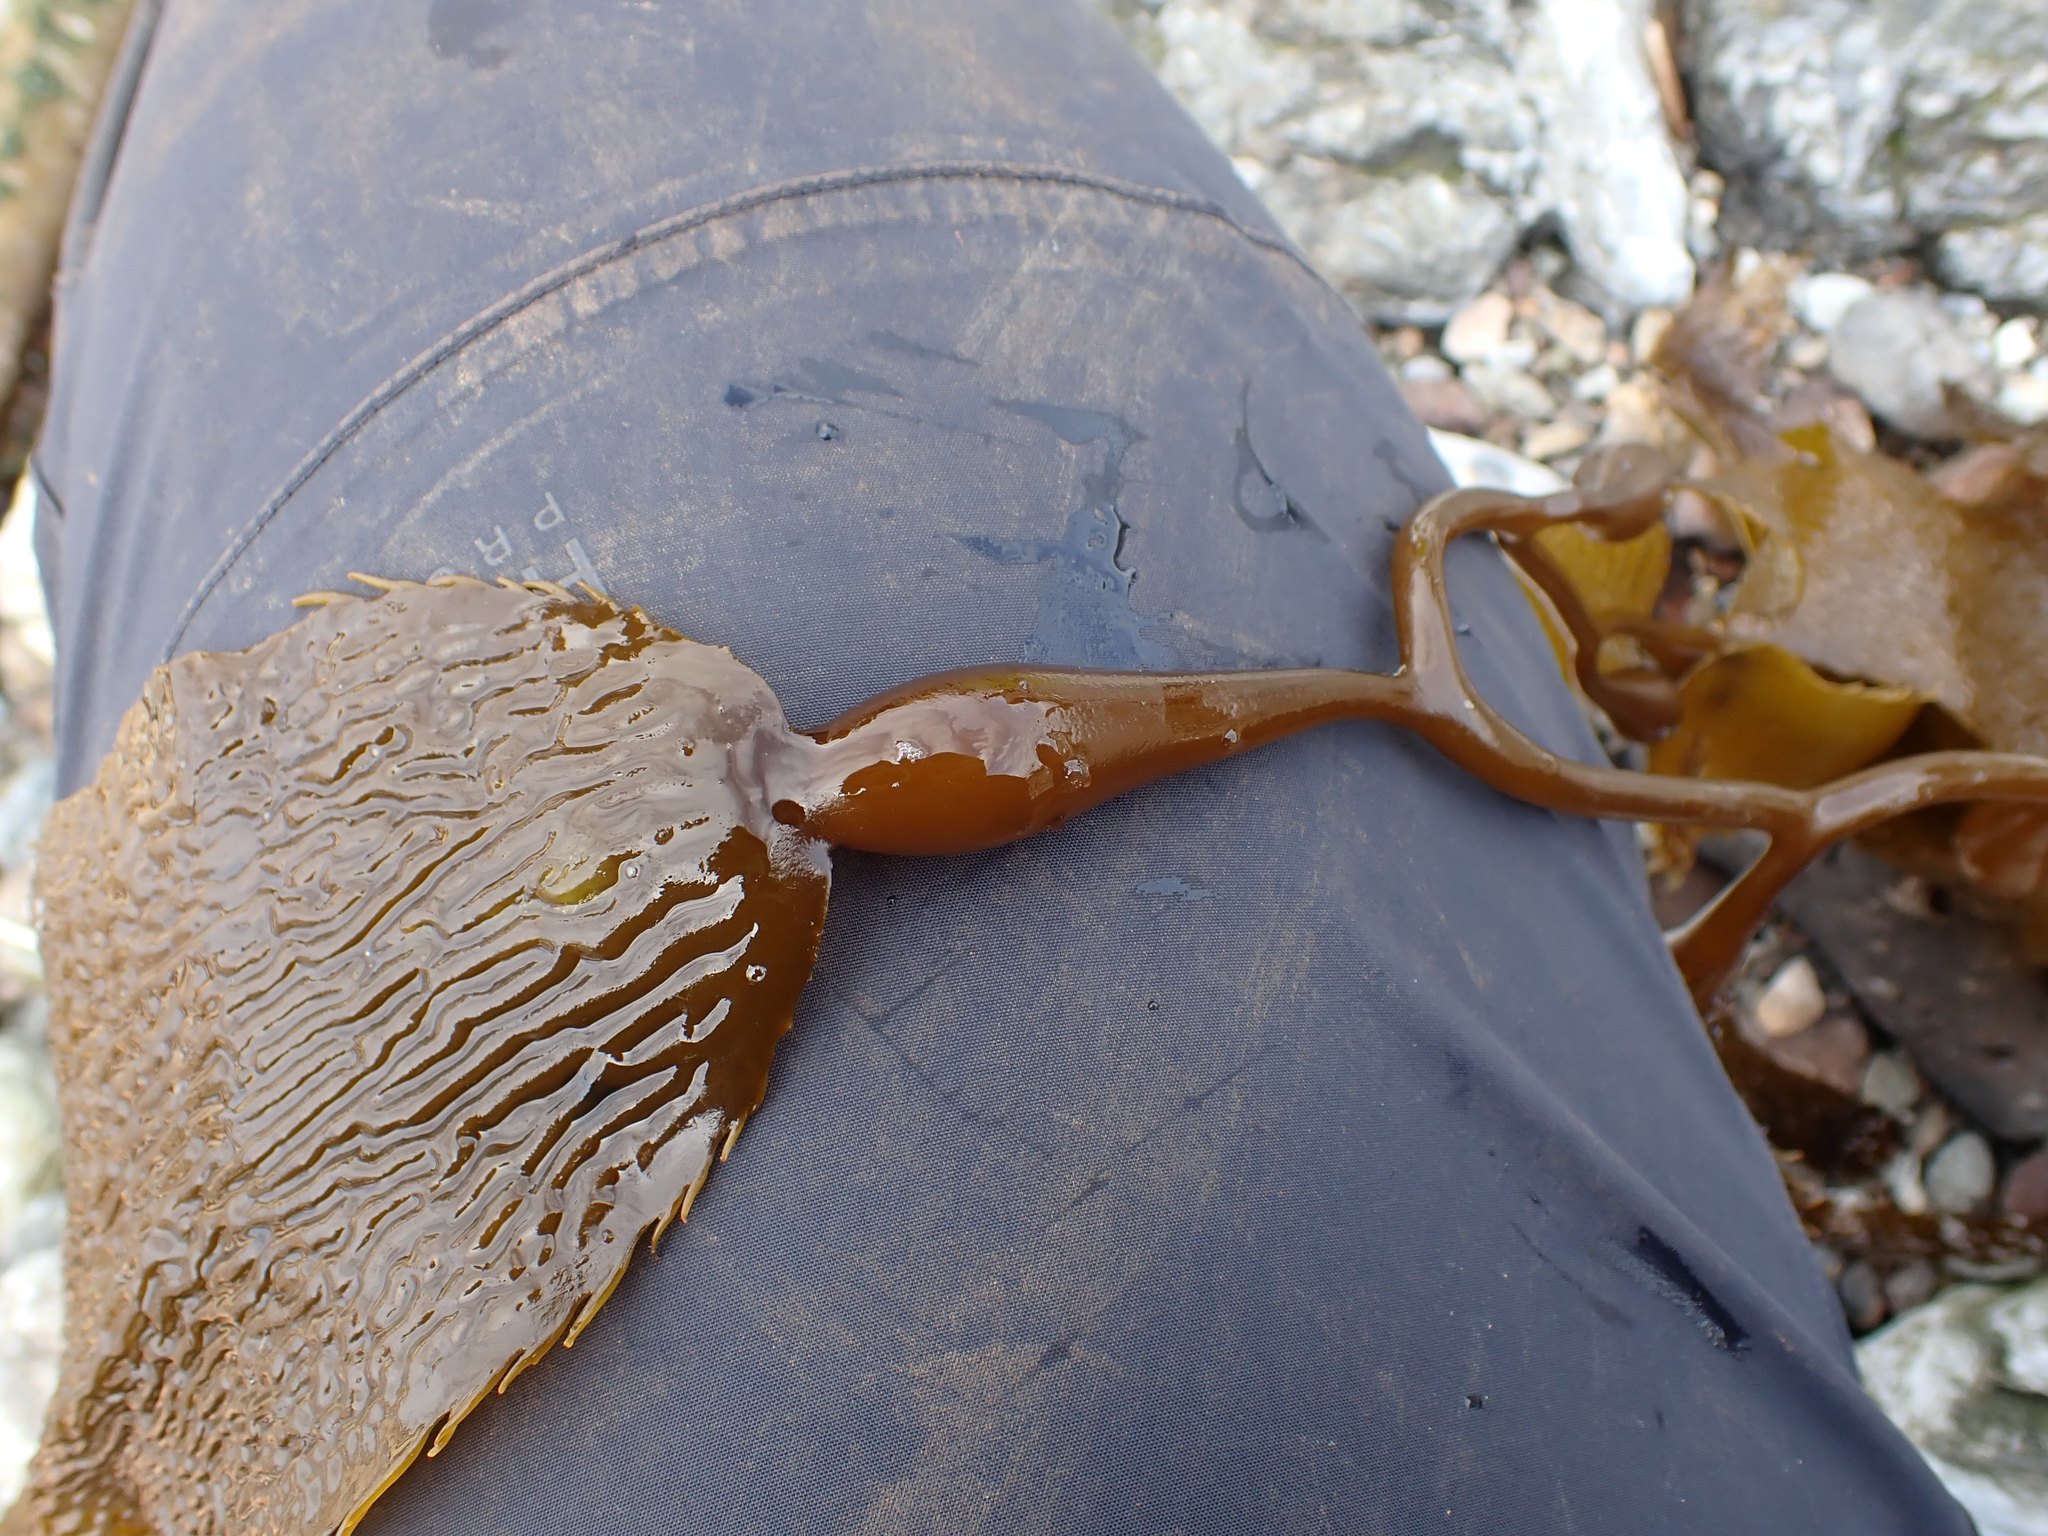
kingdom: Chromista
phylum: Ochrophyta
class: Phaeophyceae
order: Laminariales
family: Laminariaceae
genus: Macrocystis
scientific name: Macrocystis pyrifera
